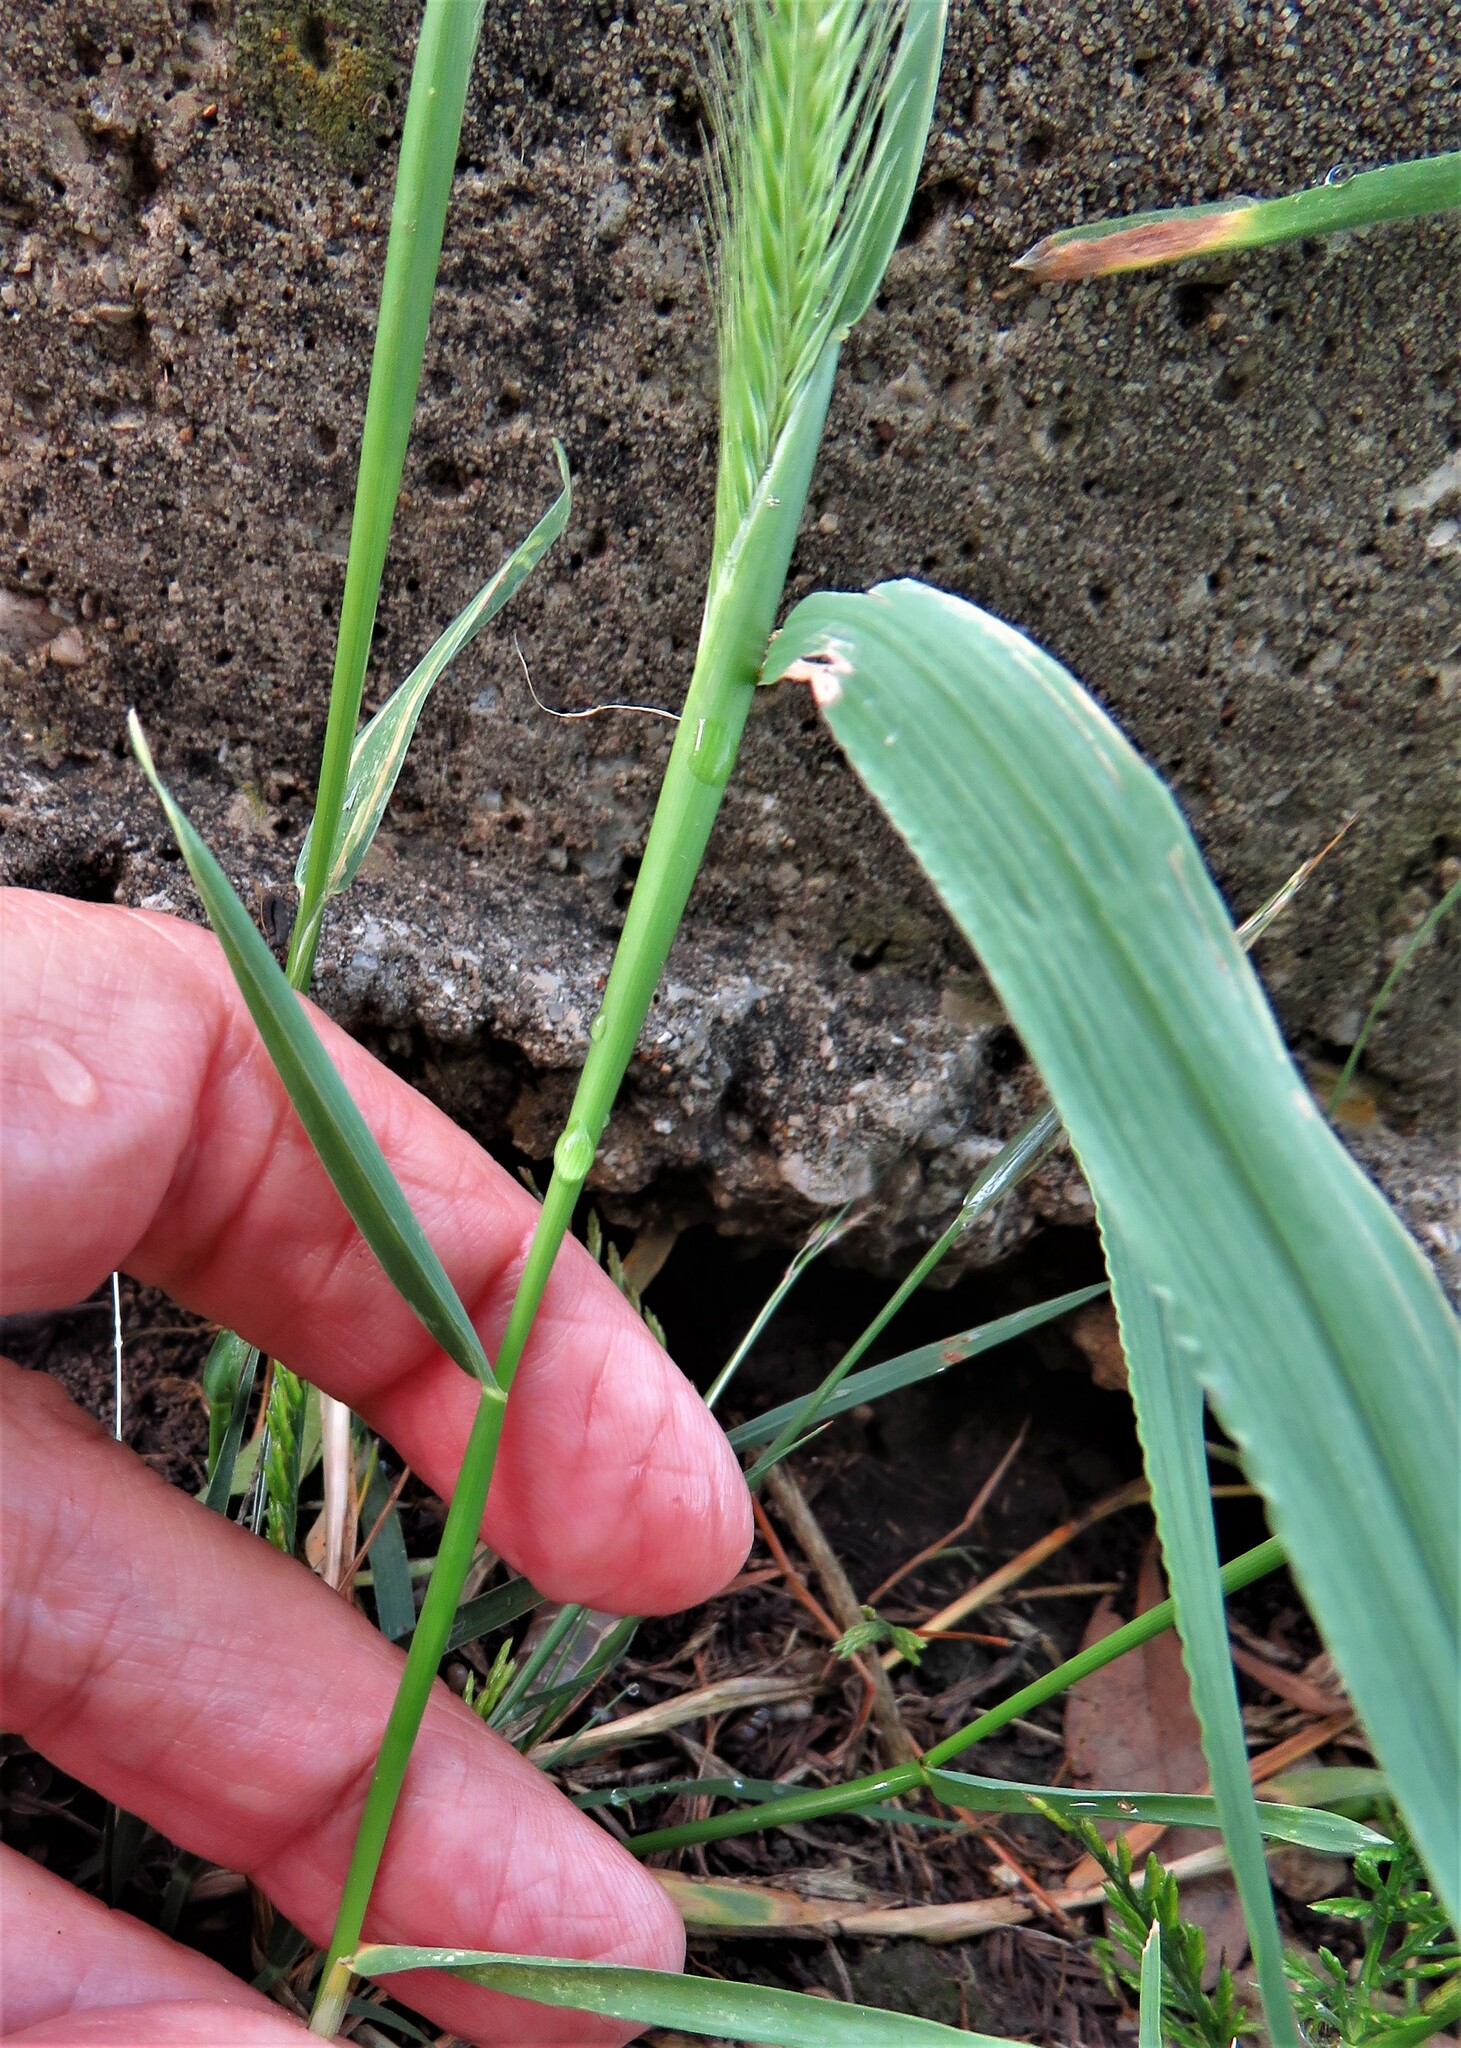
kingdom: Plantae
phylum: Tracheophyta
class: Liliopsida
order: Poales
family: Poaceae
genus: Hordeum
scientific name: Hordeum pusillum
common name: Little barley
